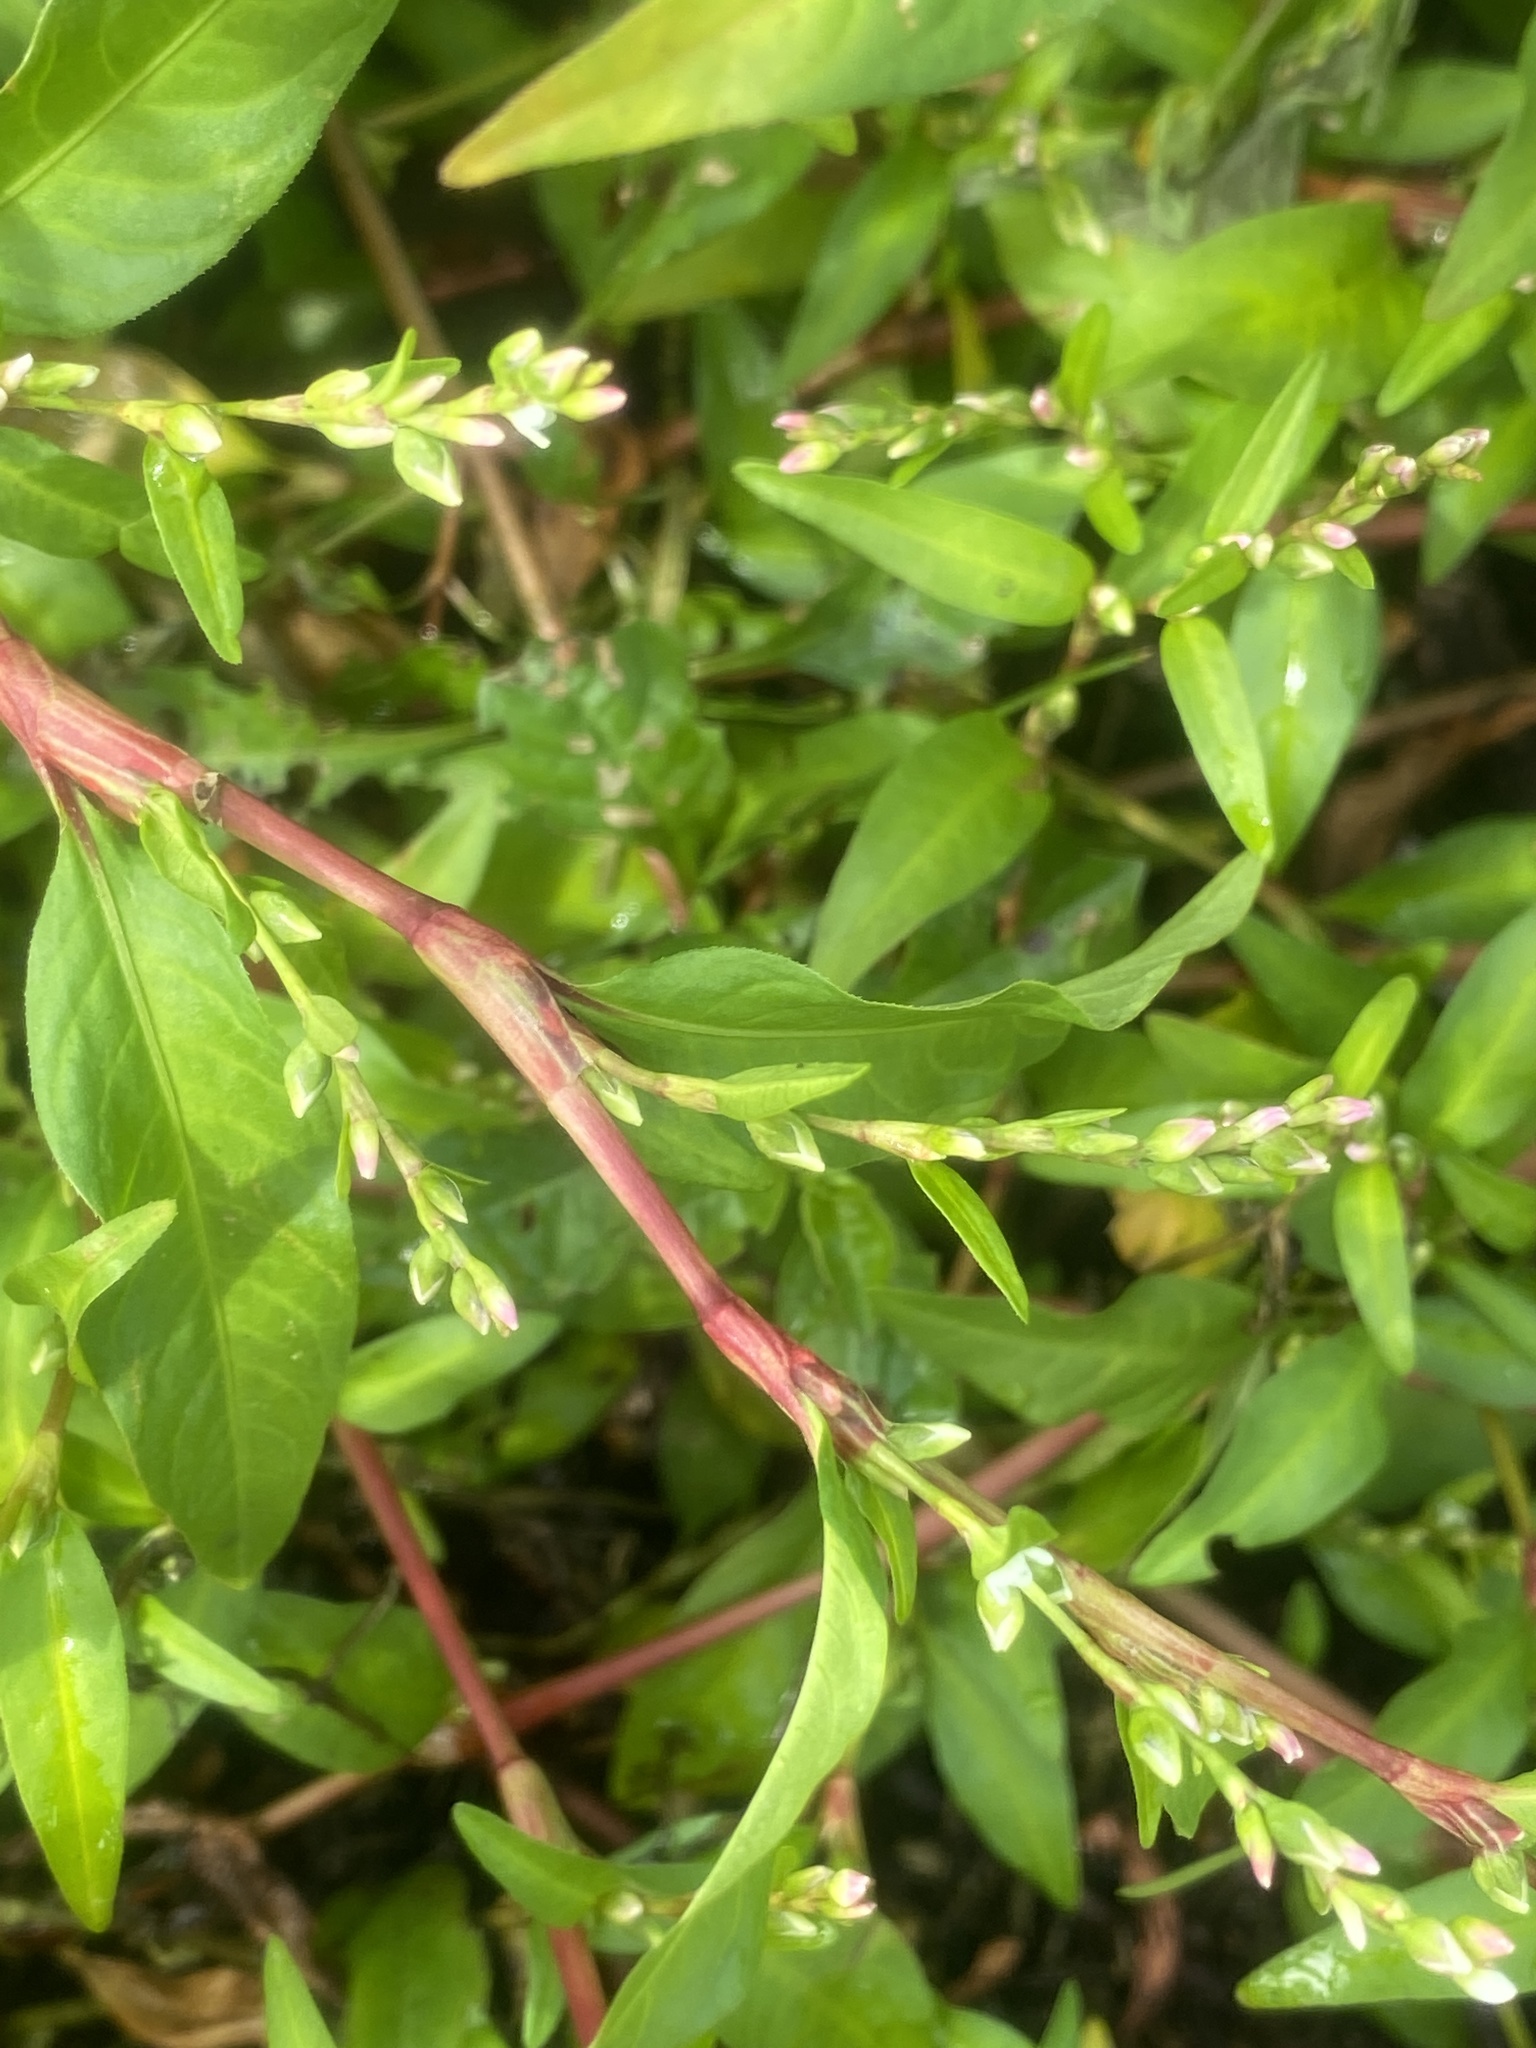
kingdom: Plantae
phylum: Tracheophyta
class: Magnoliopsida
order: Caryophyllales
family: Polygonaceae
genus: Persicaria
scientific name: Persicaria hydropiper
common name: Water-pepper
